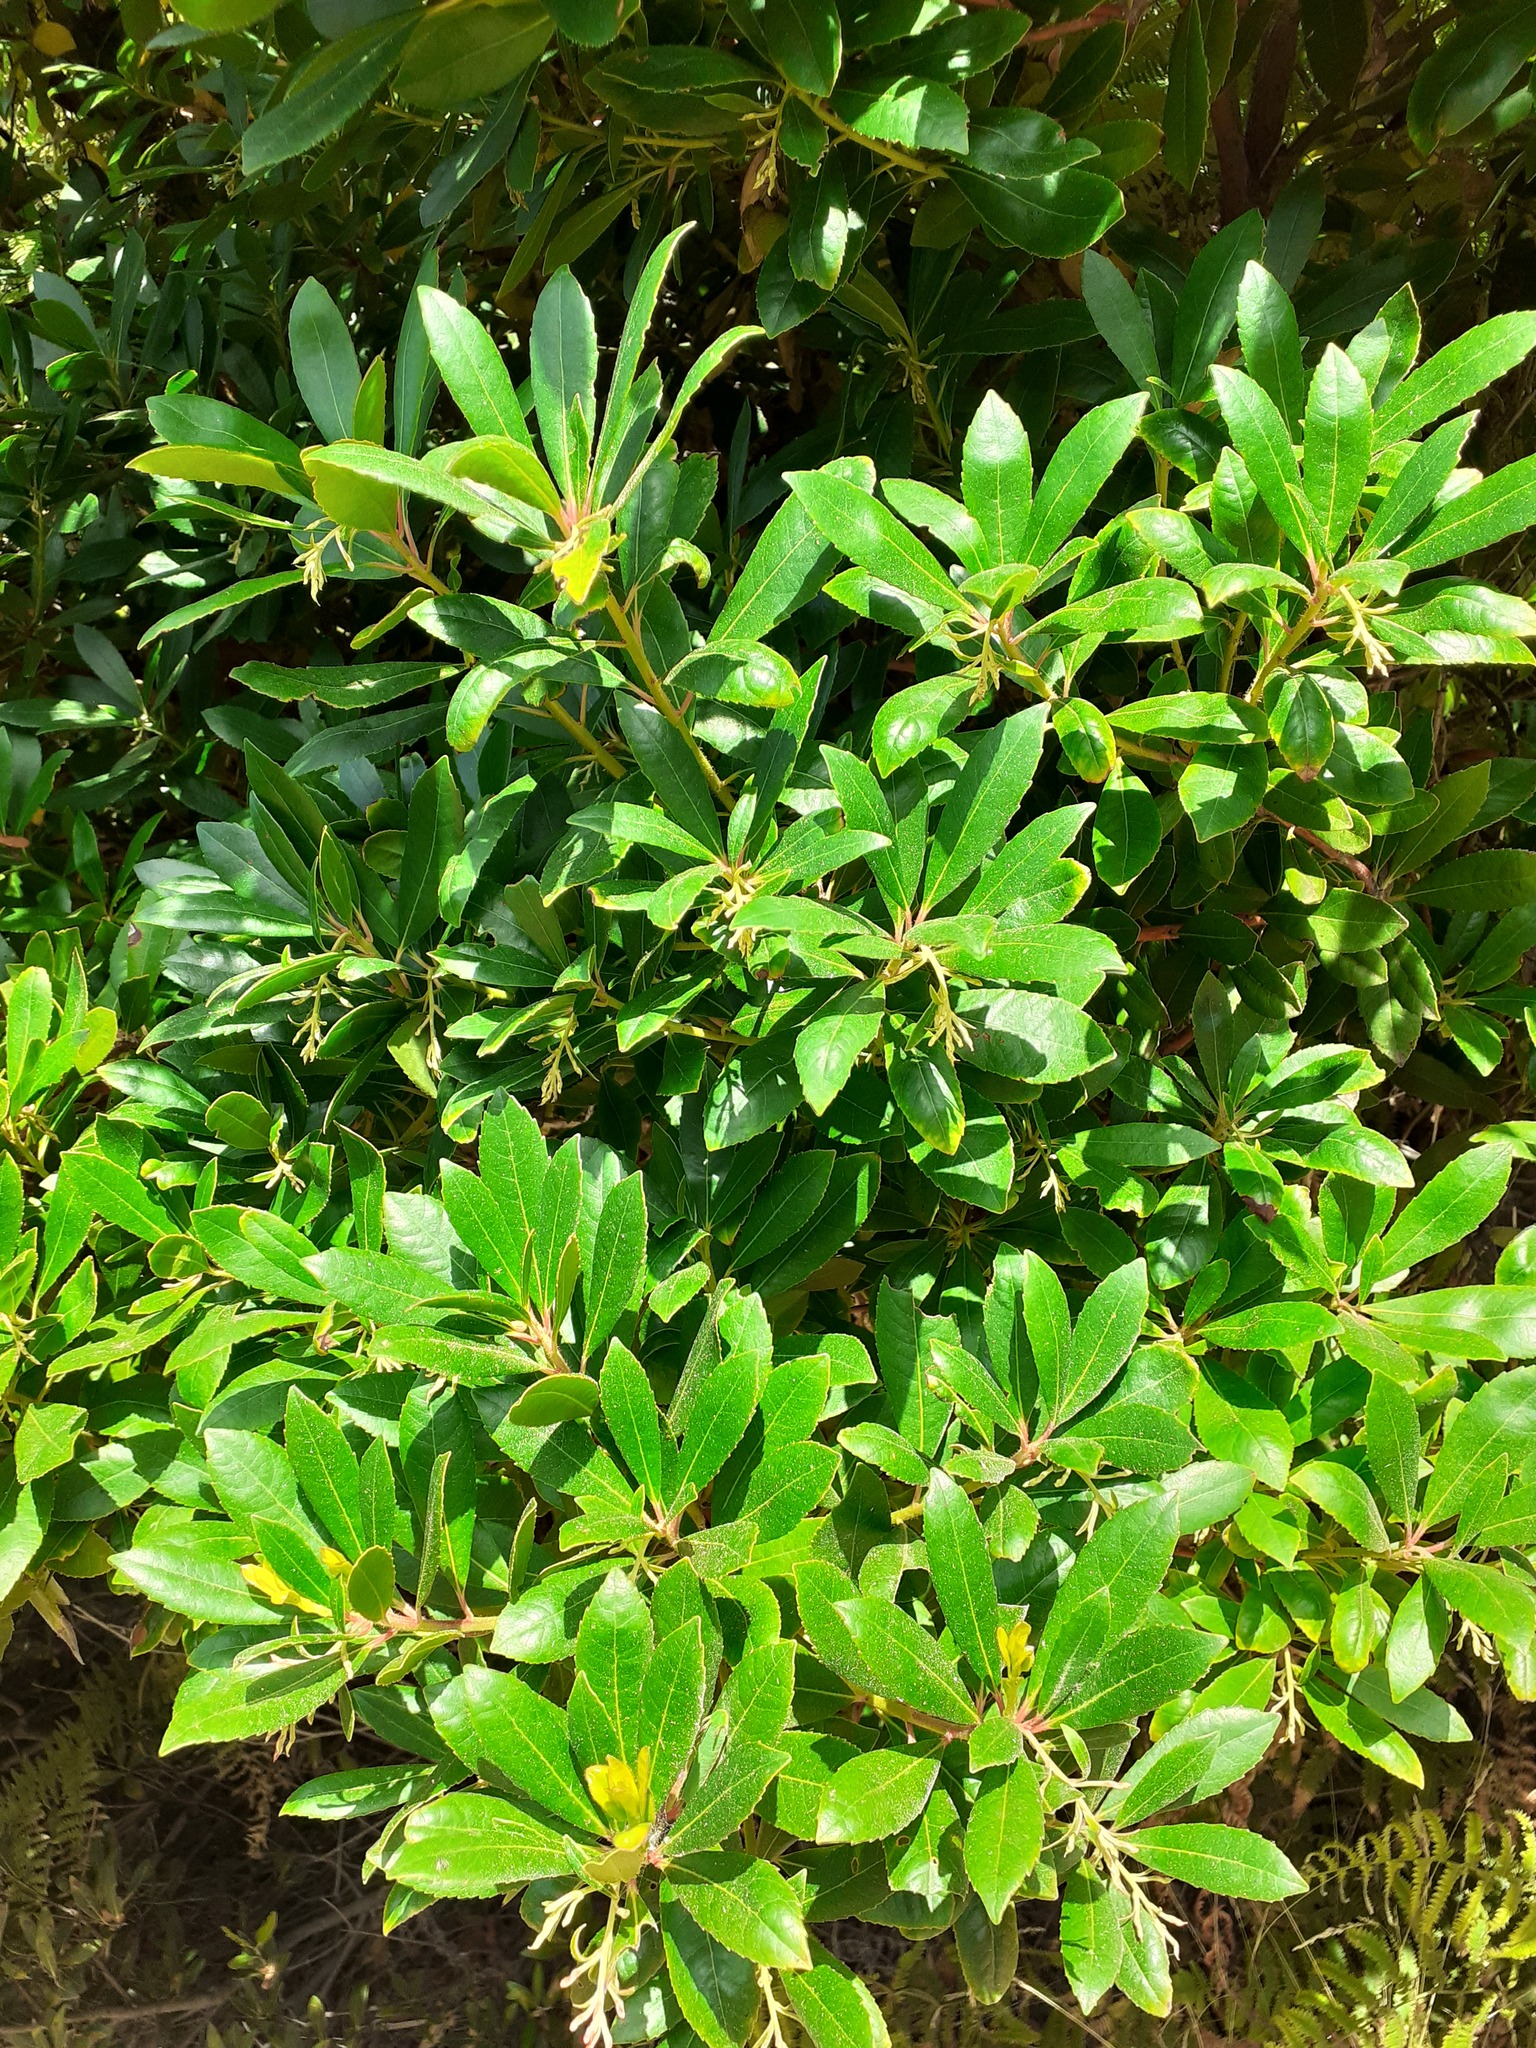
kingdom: Plantae
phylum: Tracheophyta
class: Magnoliopsida
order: Ericales
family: Ericaceae
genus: Arbutus
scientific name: Arbutus unedo
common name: Strawberry-tree
